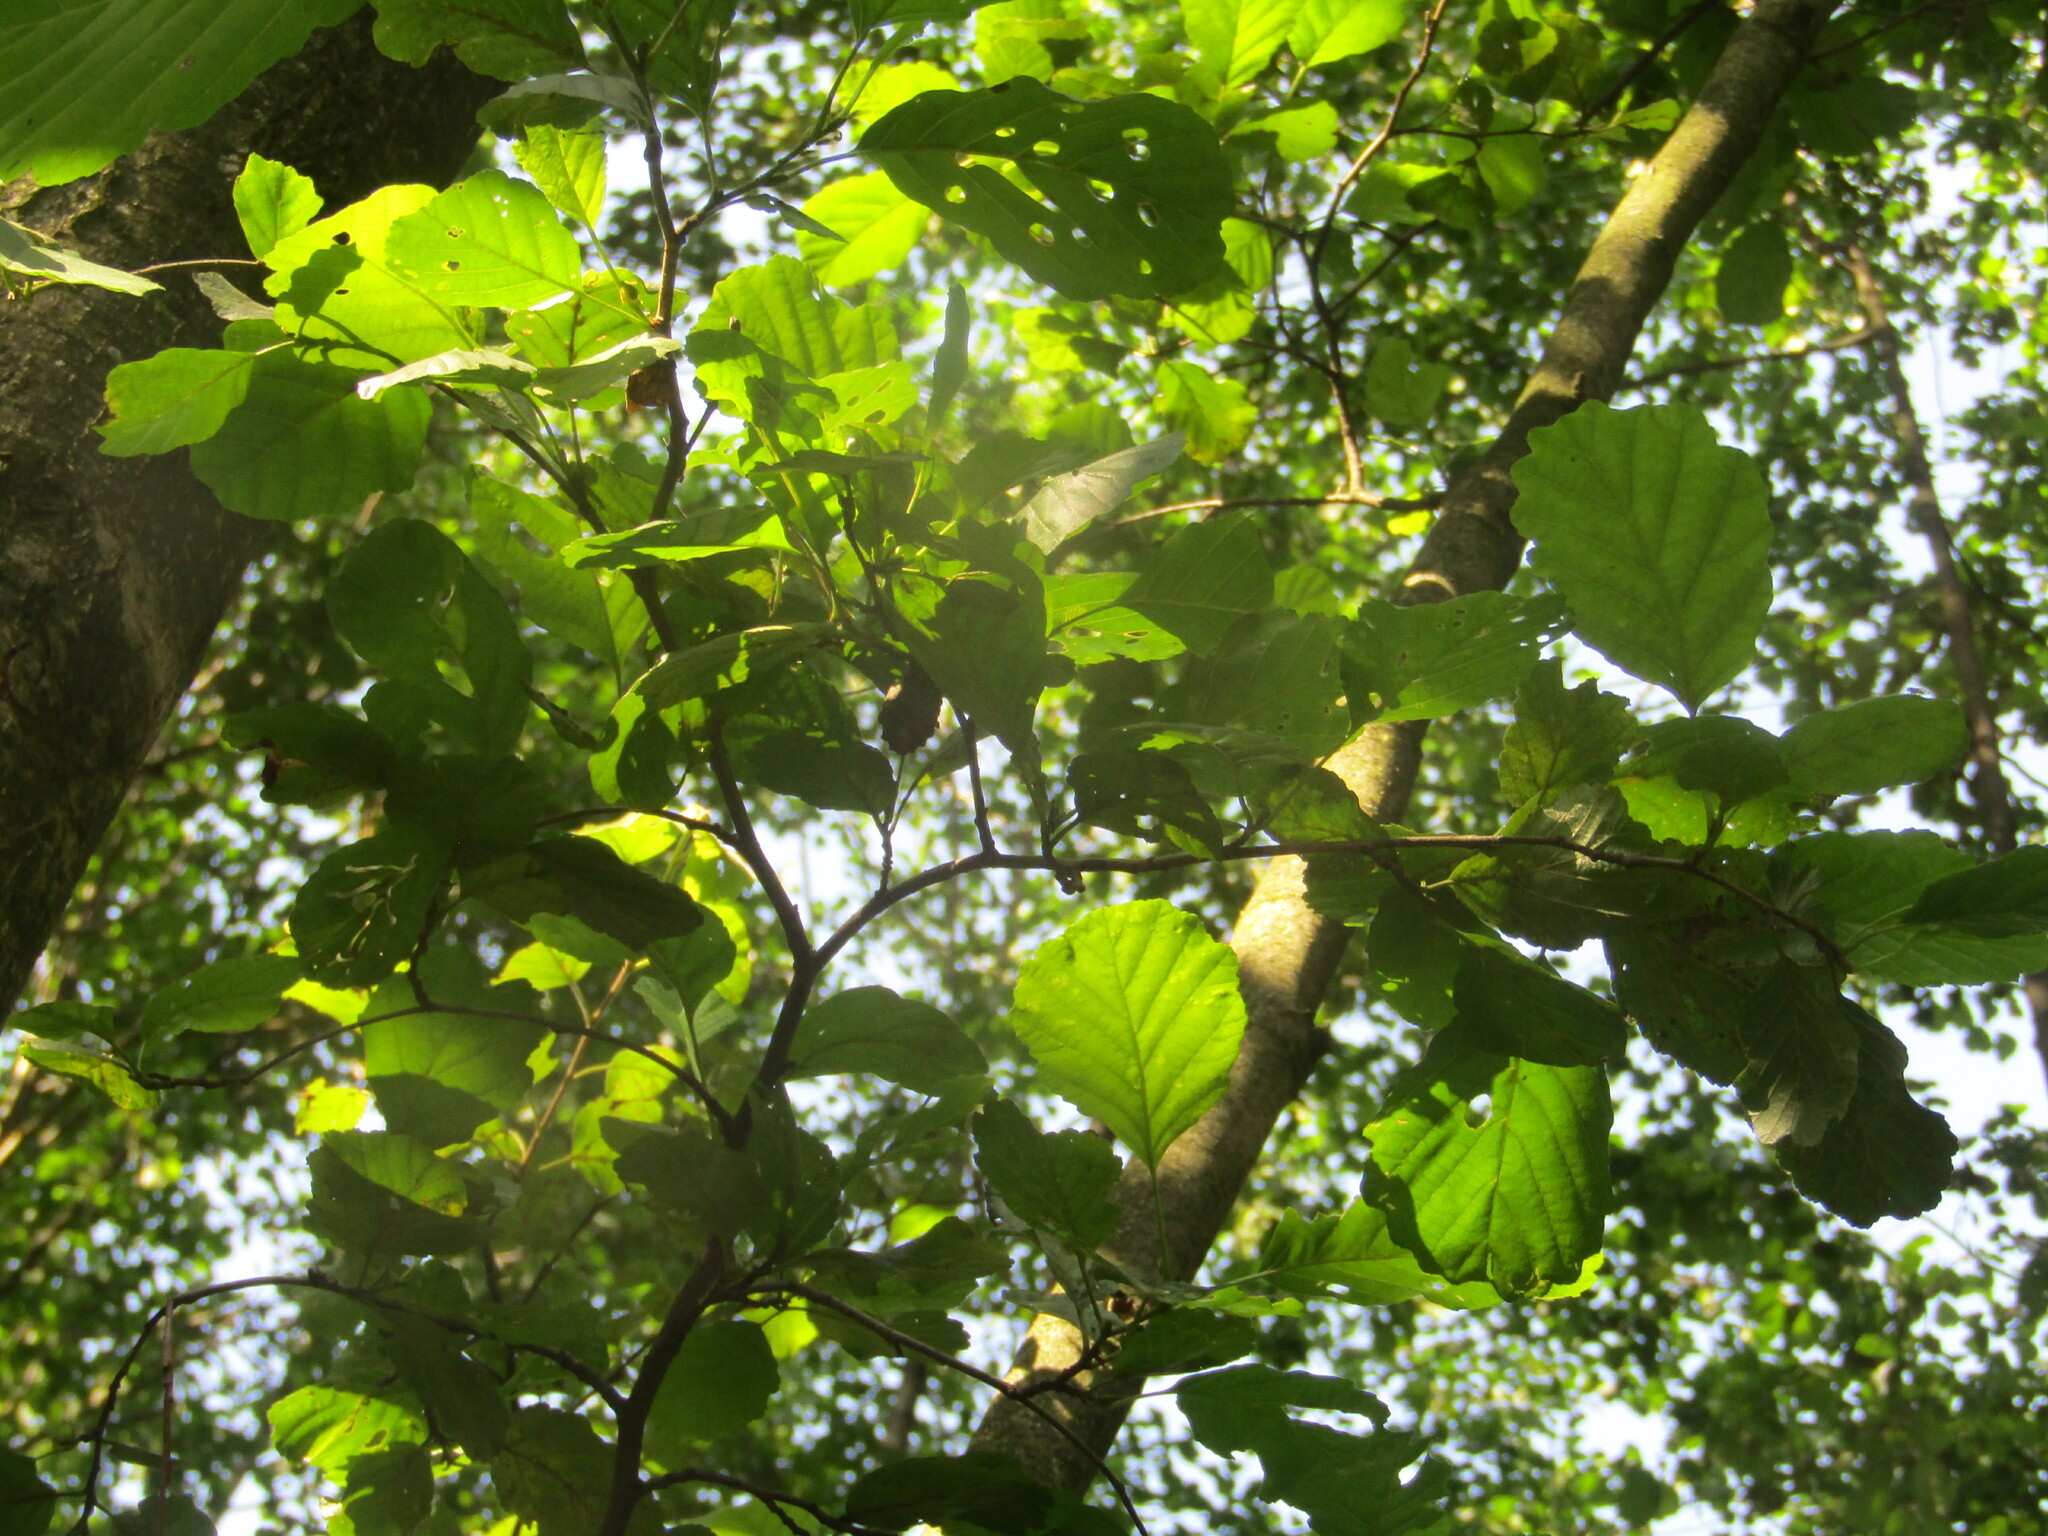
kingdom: Plantae
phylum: Tracheophyta
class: Magnoliopsida
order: Fagales
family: Betulaceae
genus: Alnus
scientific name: Alnus glutinosa
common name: Black alder
